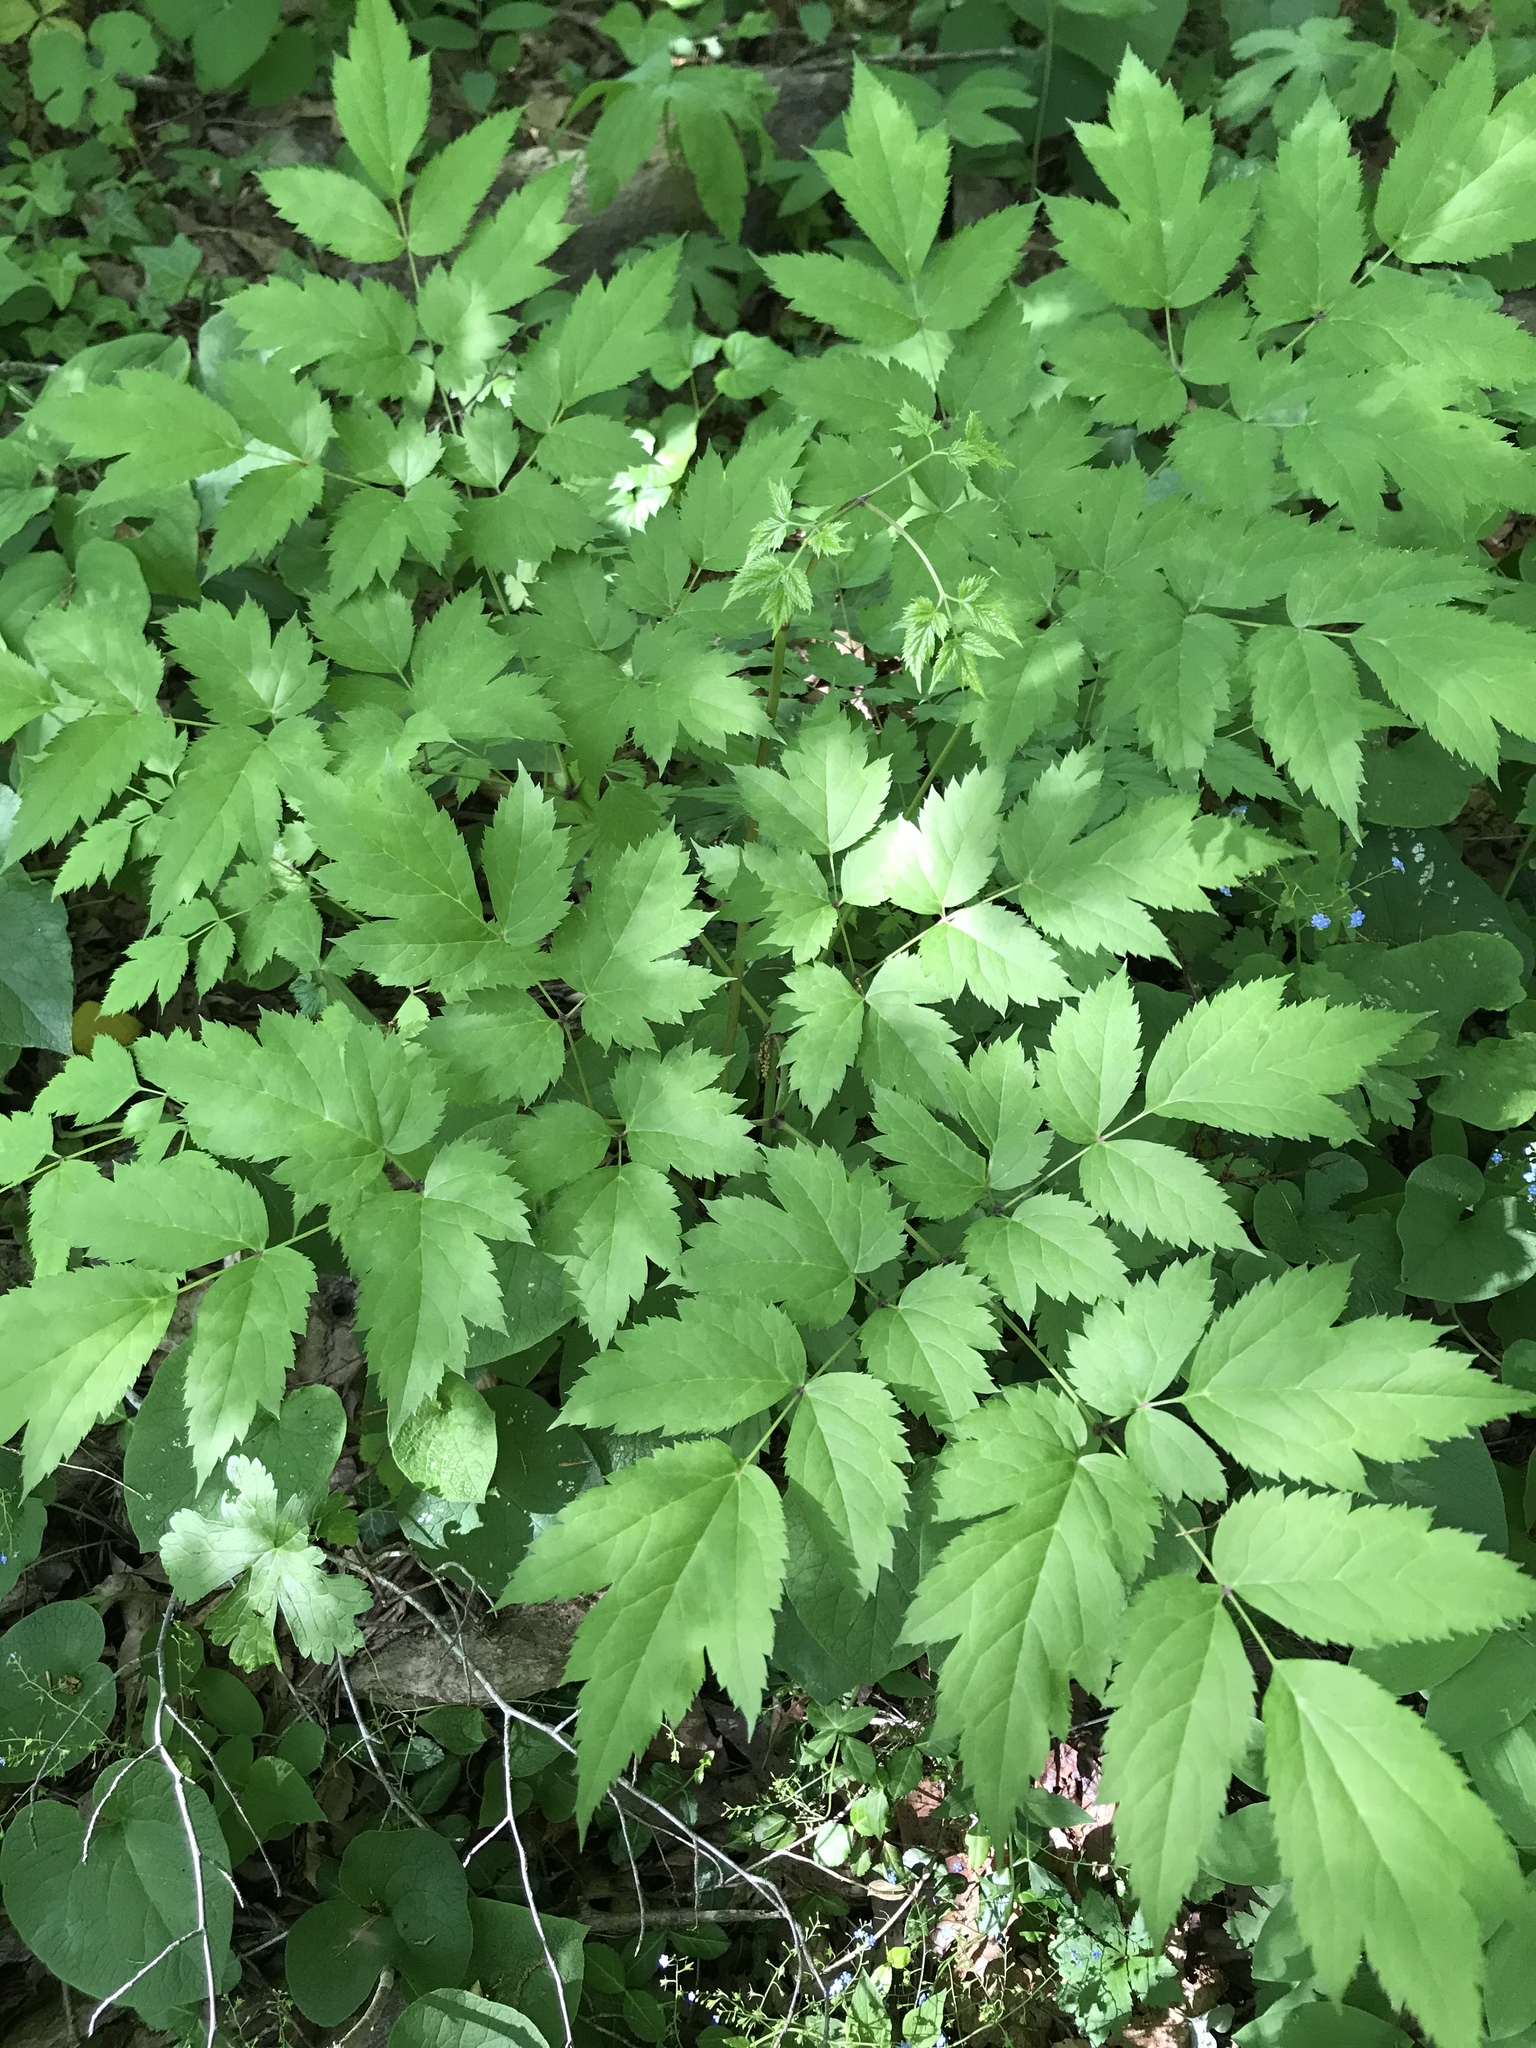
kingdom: Plantae
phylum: Tracheophyta
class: Magnoliopsida
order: Ranunculales
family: Ranunculaceae
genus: Actaea
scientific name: Actaea racemosa
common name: Black cohosh
